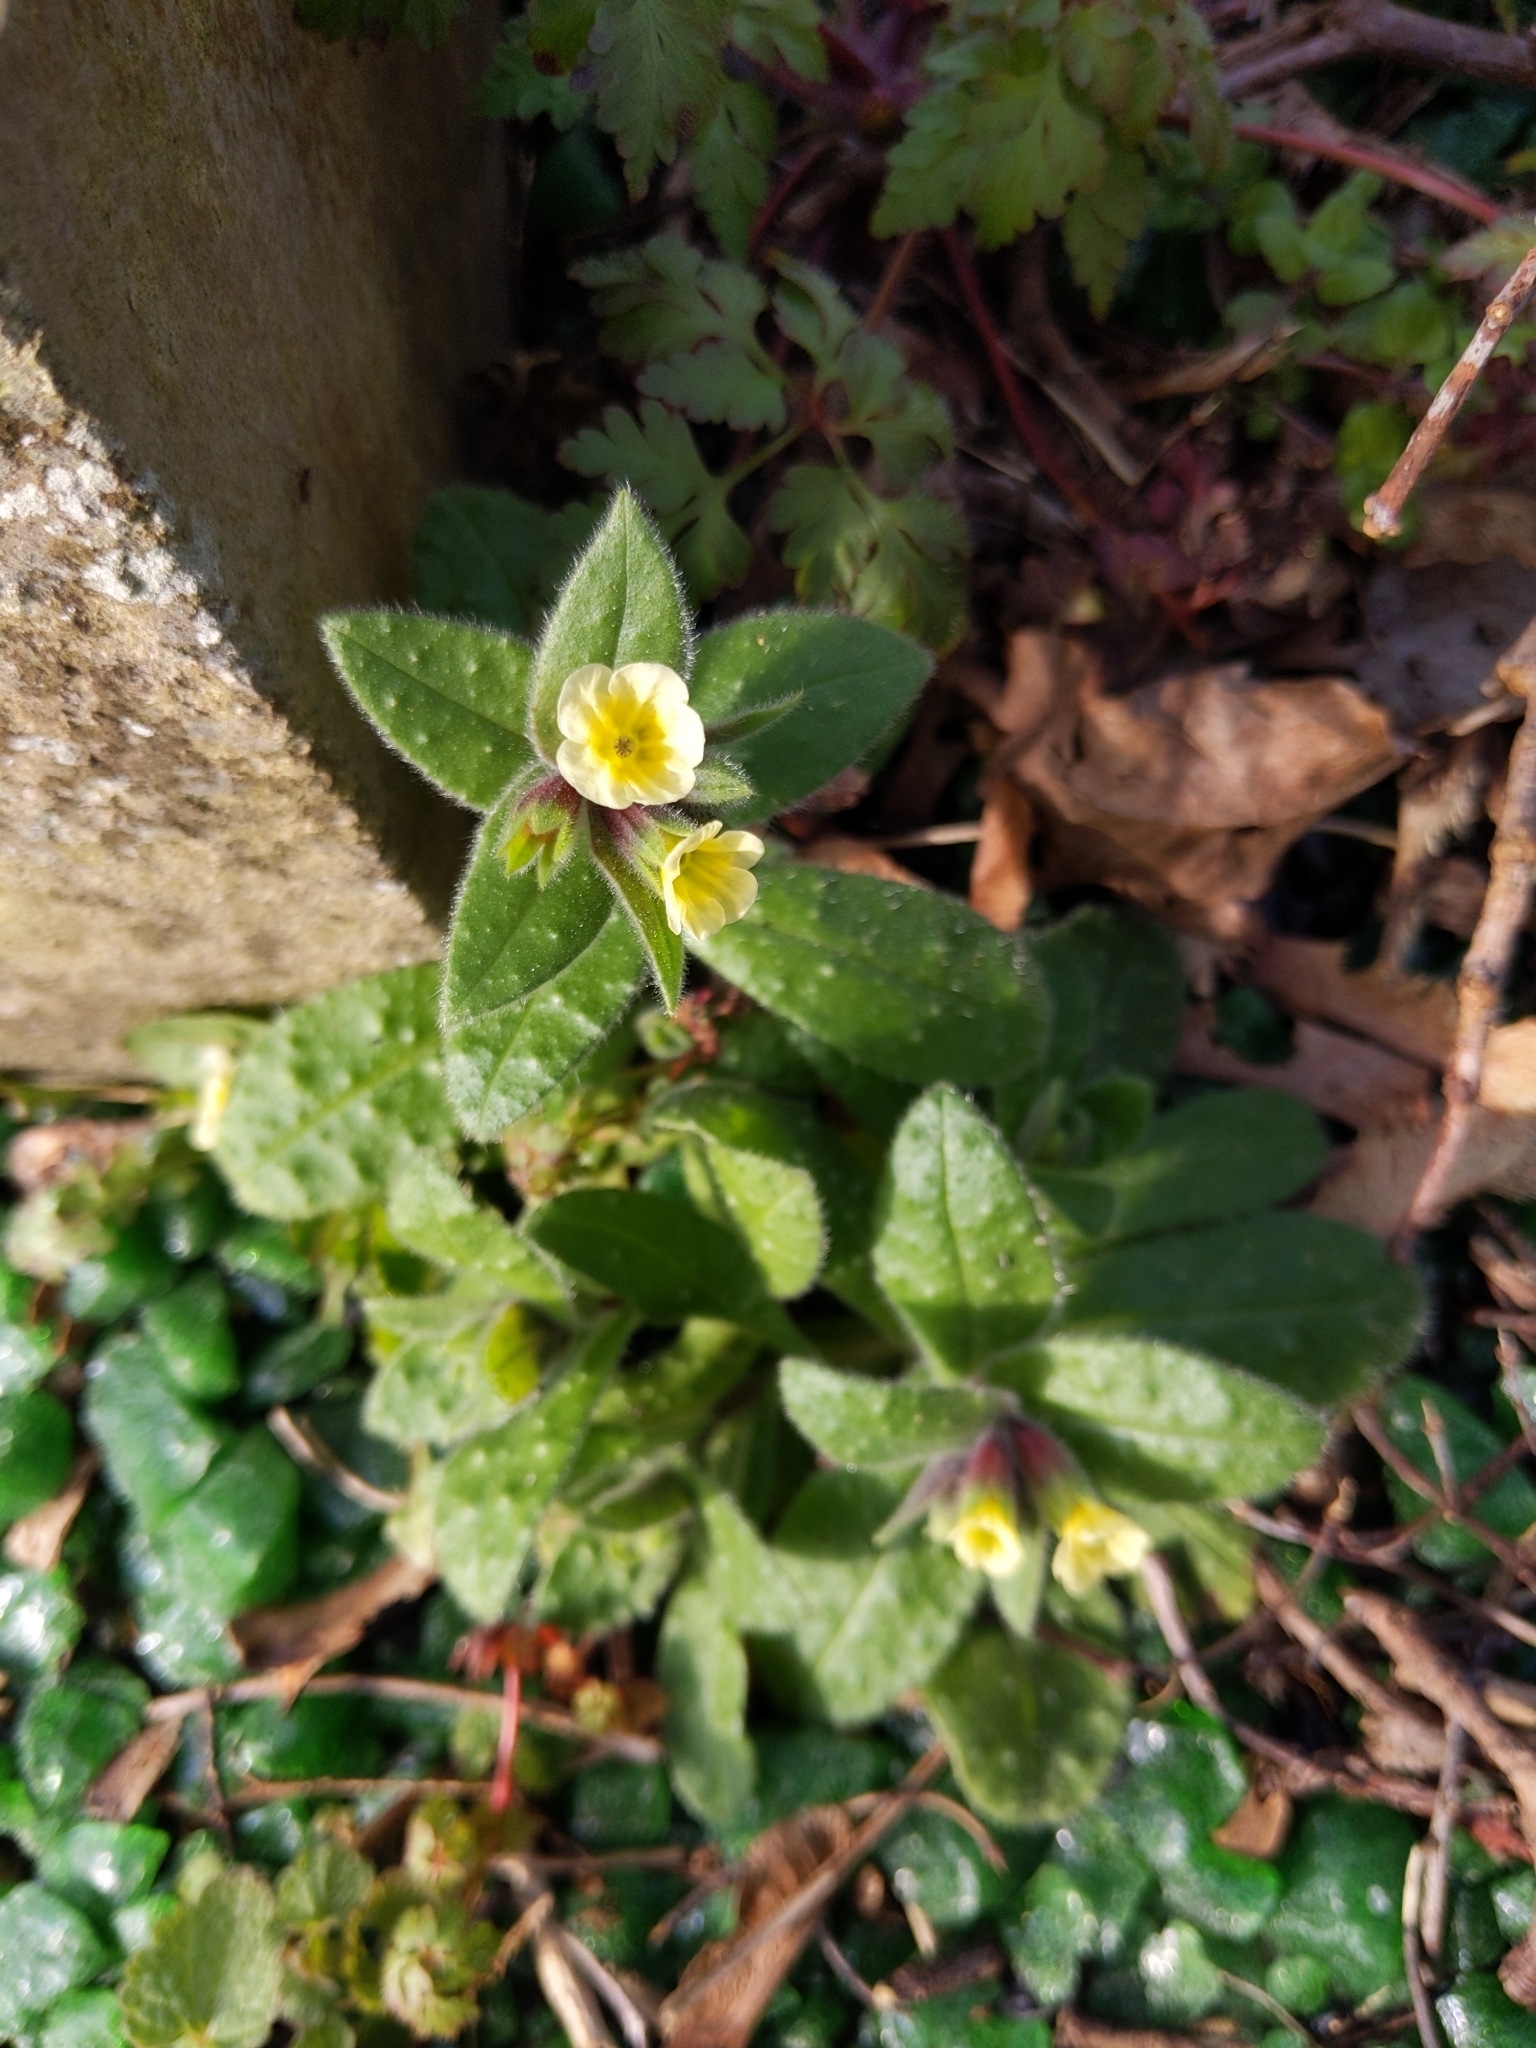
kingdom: Plantae
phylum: Tracheophyta
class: Magnoliopsida
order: Boraginales
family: Boraginaceae
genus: Nonea
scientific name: Nonea lutea
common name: Yellow nonea
